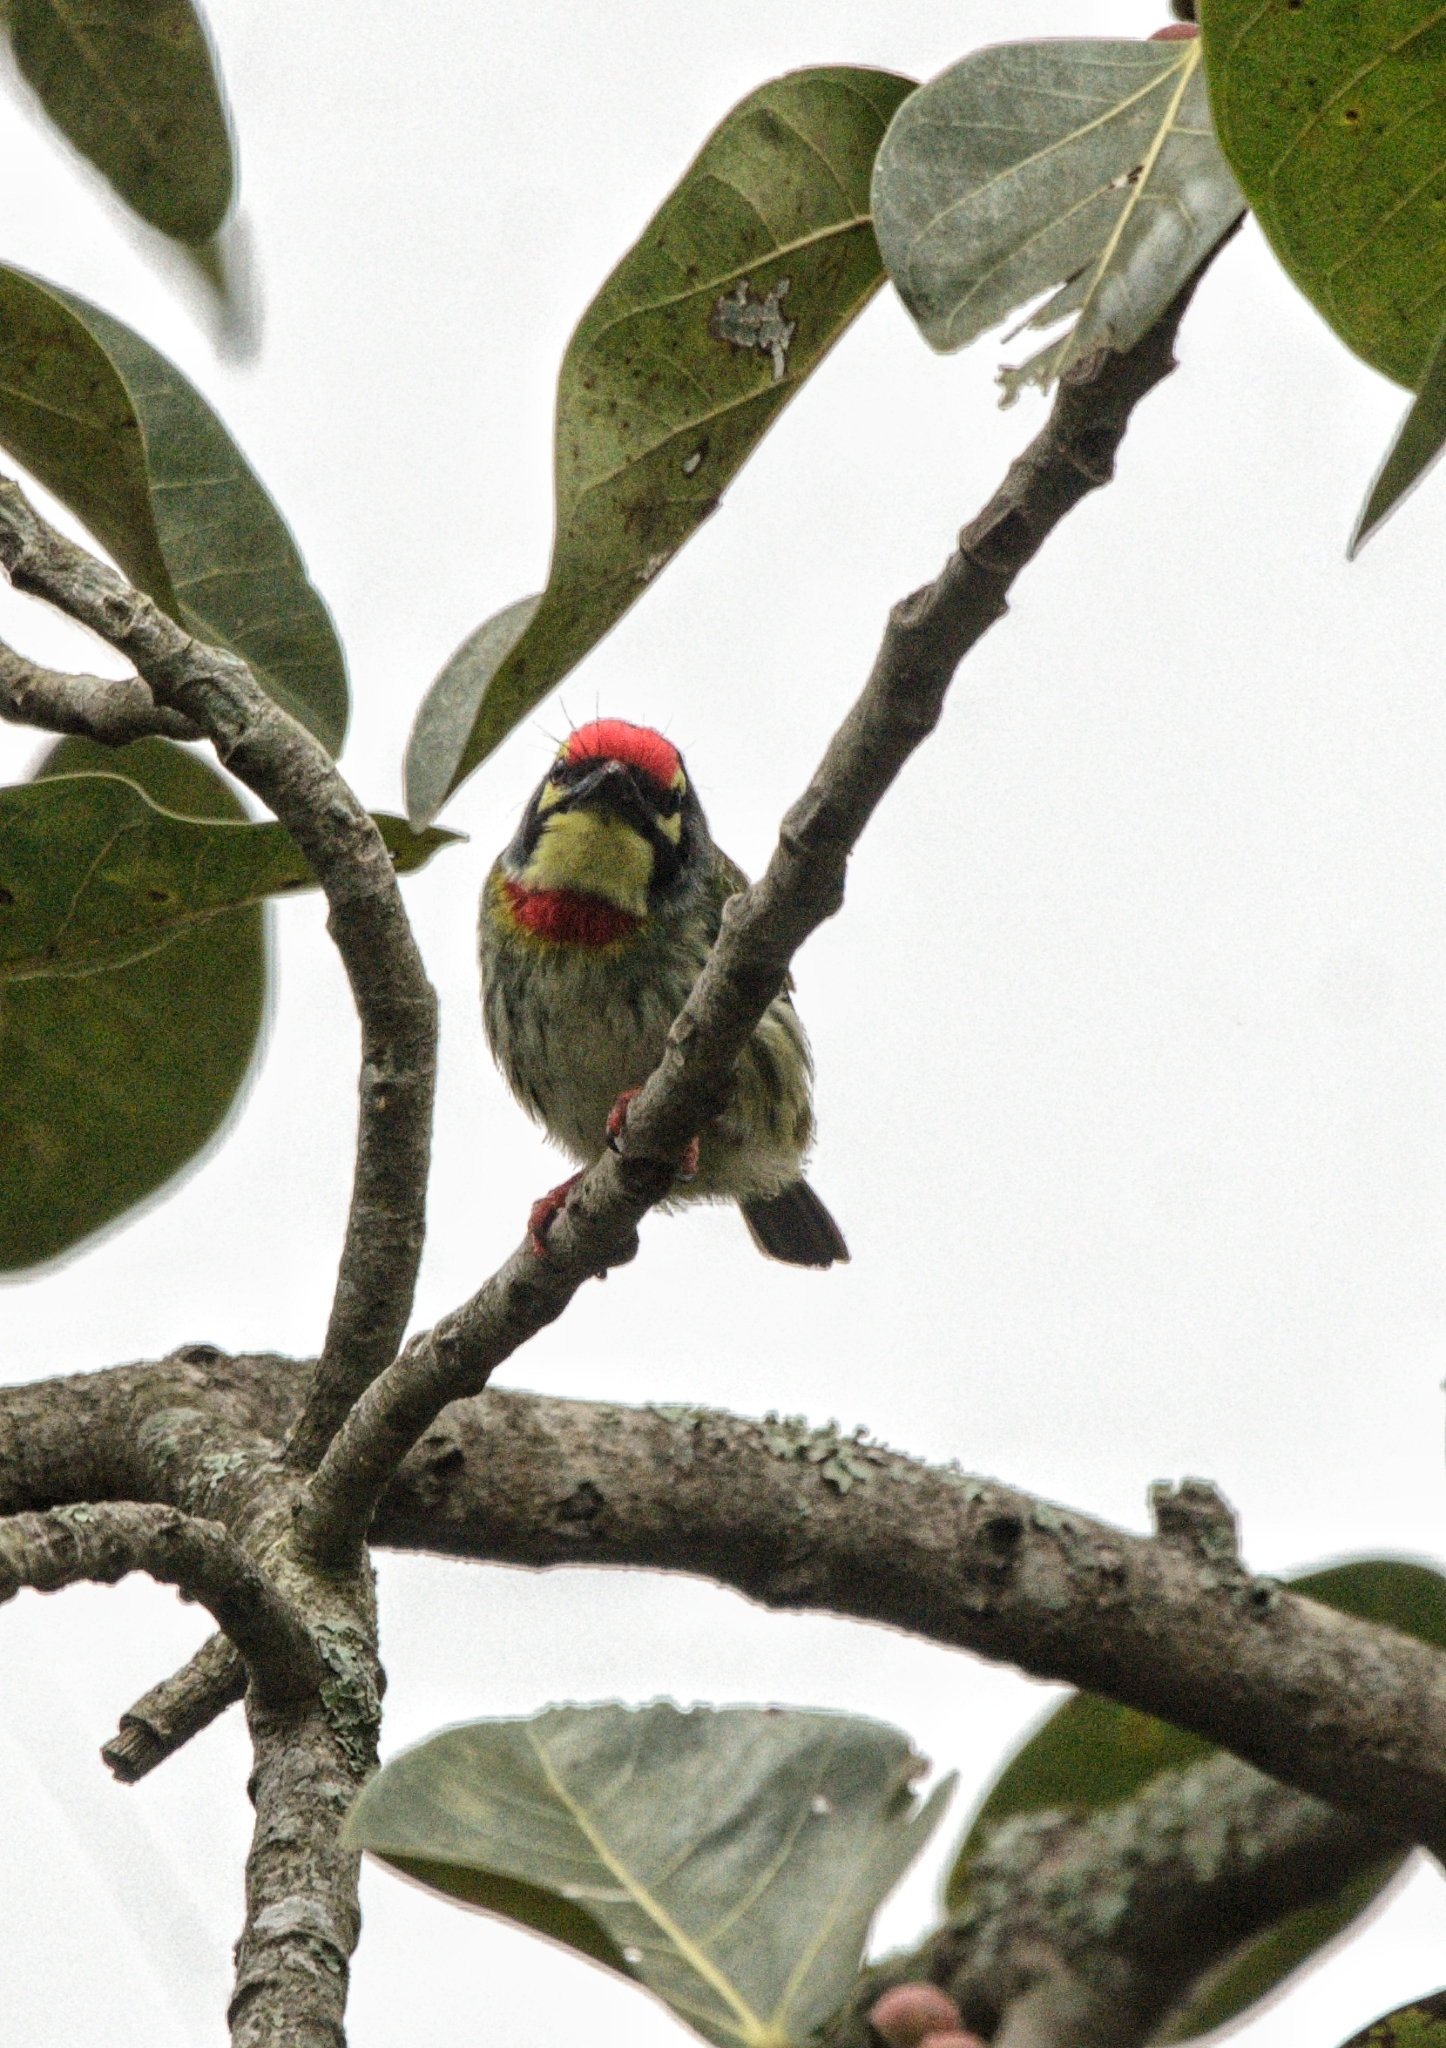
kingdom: Animalia
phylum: Chordata
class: Aves
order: Piciformes
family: Megalaimidae
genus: Psilopogon
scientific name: Psilopogon haemacephalus
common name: Coppersmith barbet
